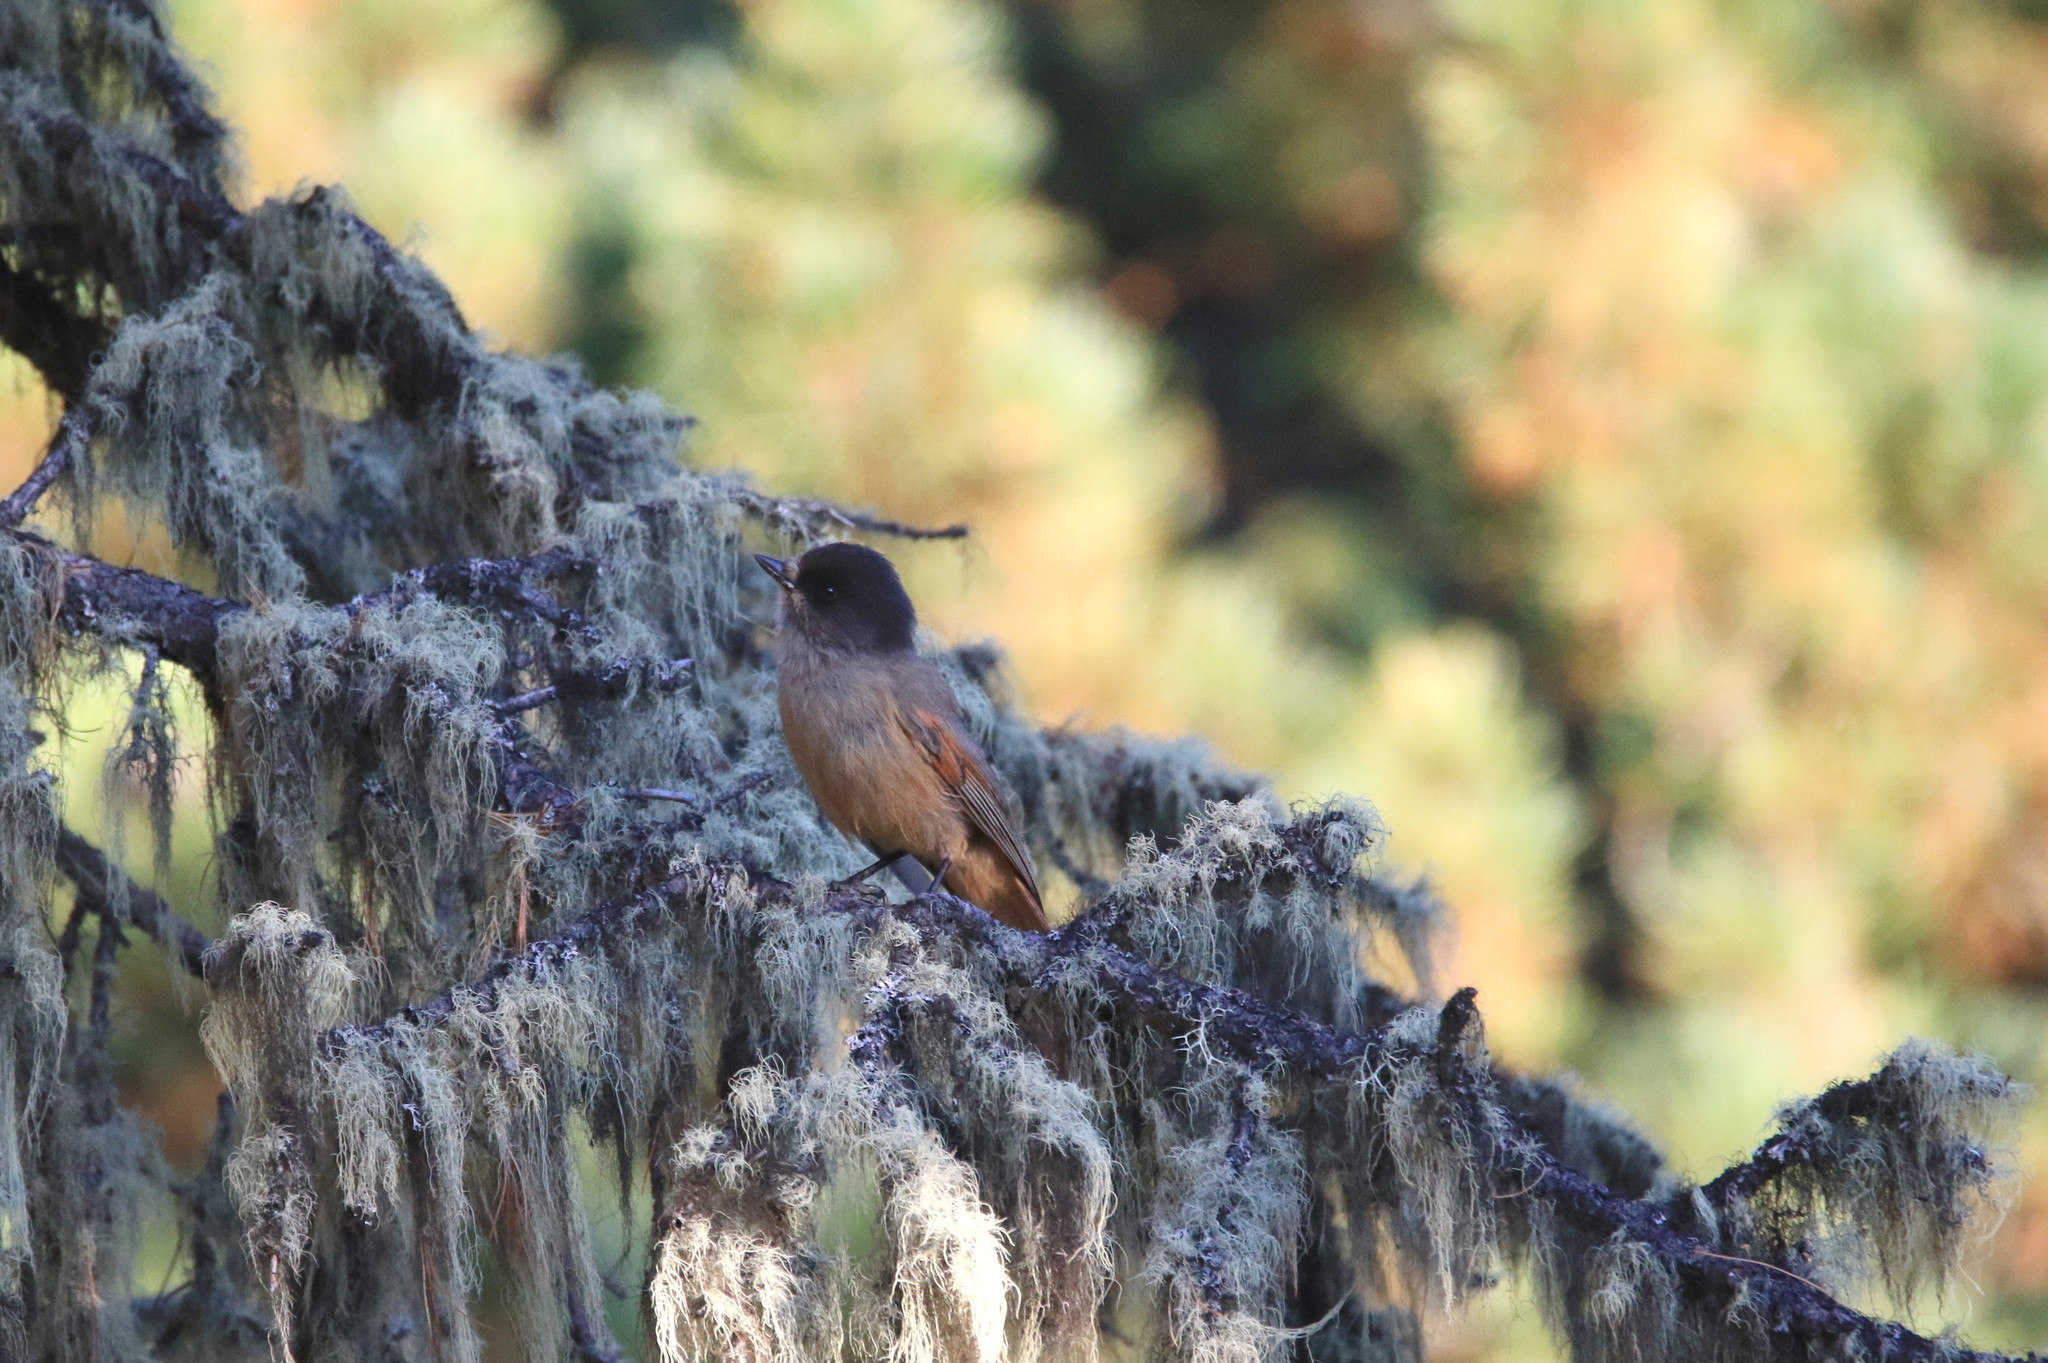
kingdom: Animalia
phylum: Chordata
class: Aves
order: Passeriformes
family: Corvidae
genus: Perisoreus
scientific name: Perisoreus infaustus
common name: Siberian jay
